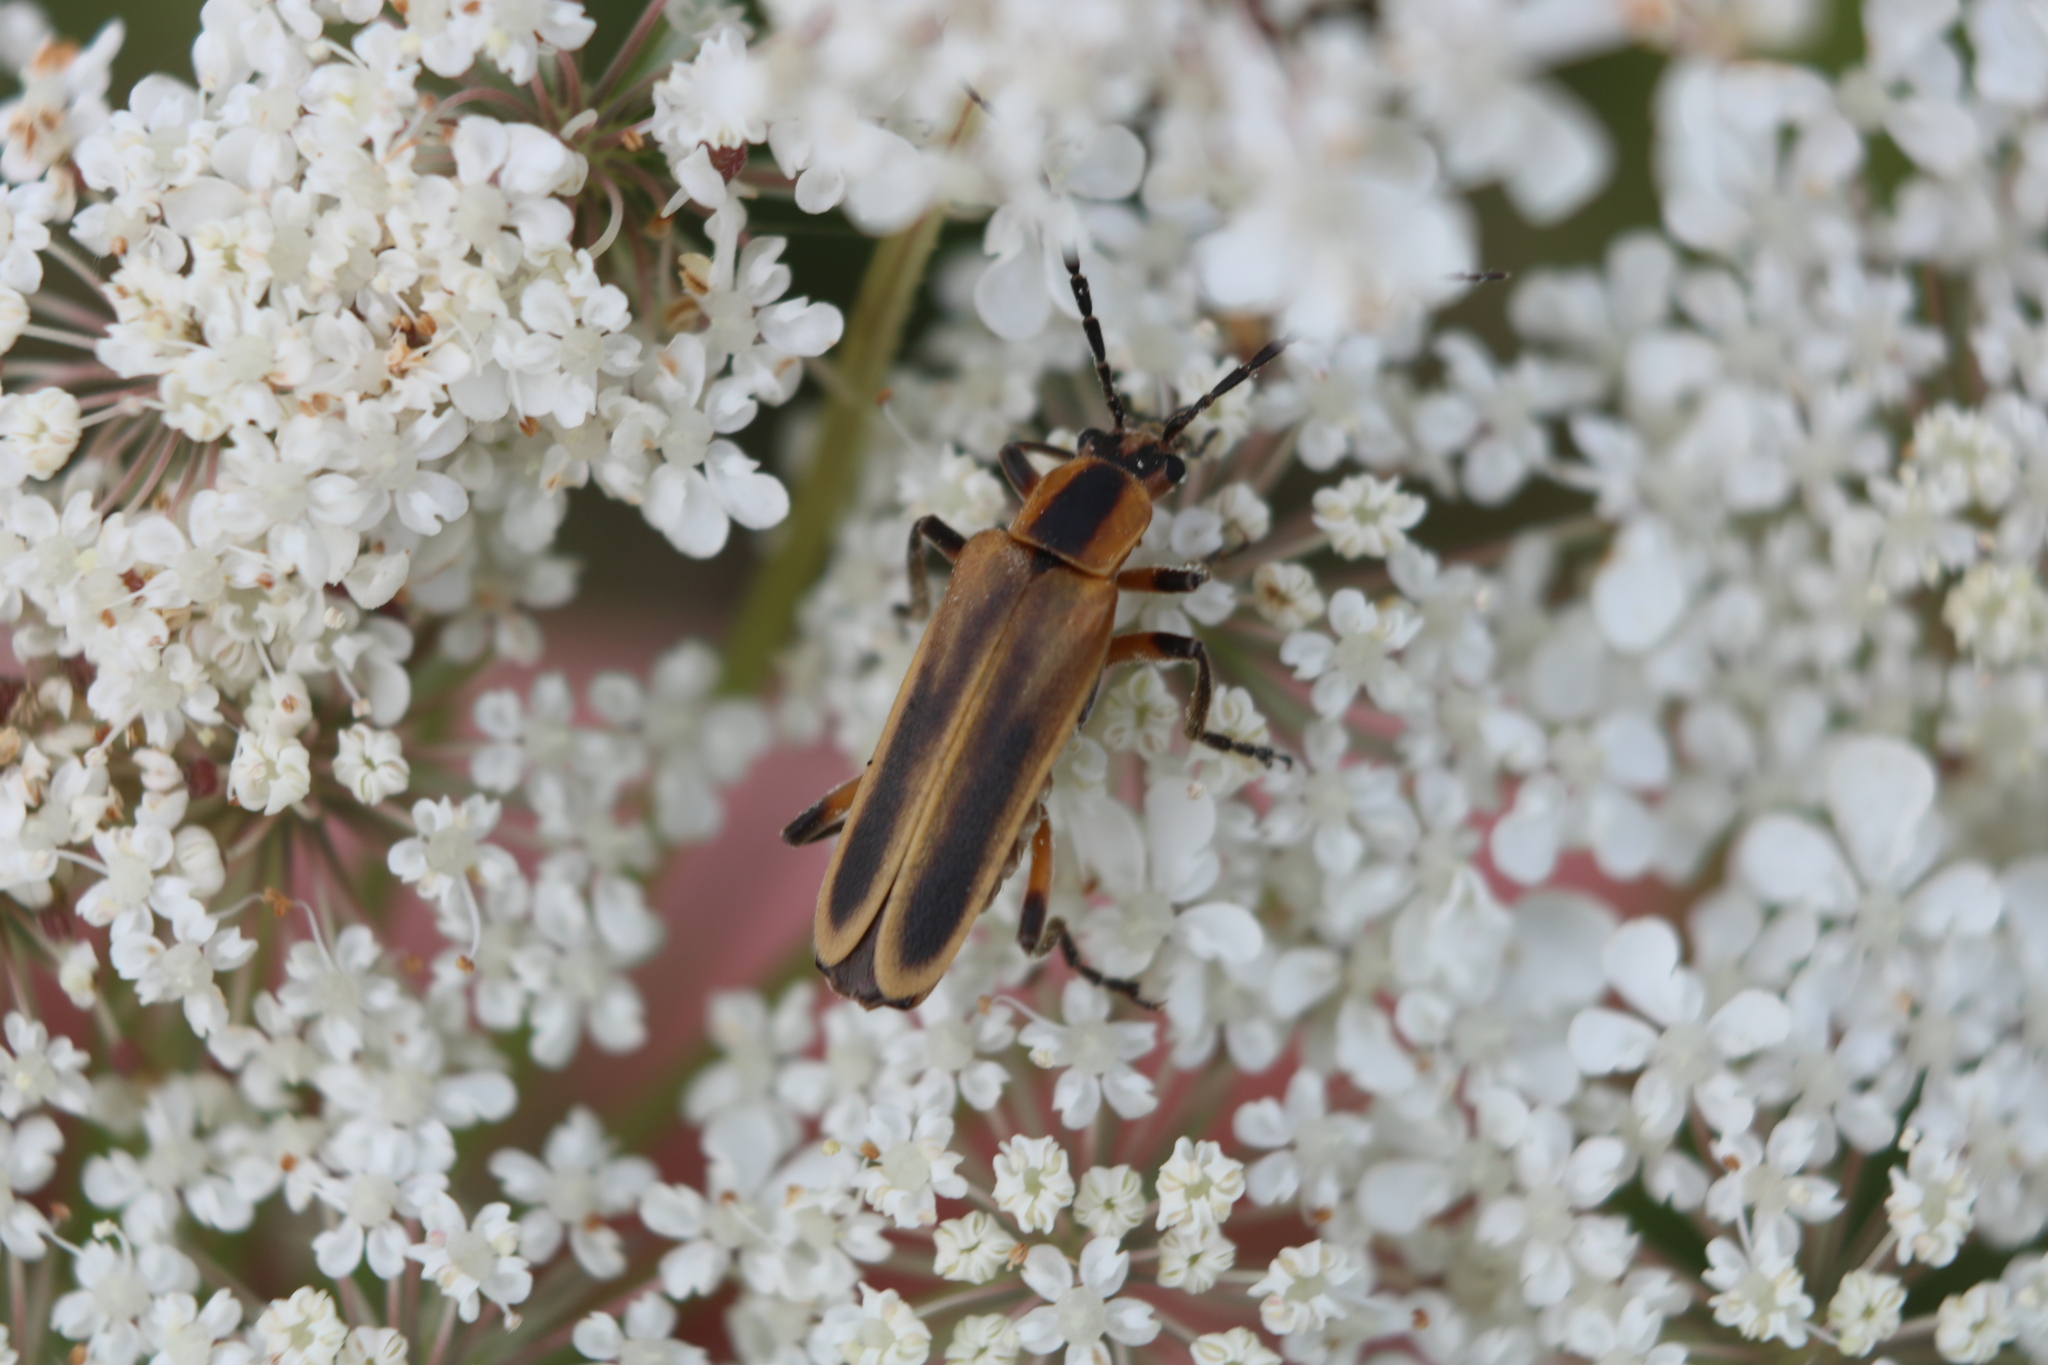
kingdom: Animalia
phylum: Arthropoda
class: Insecta
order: Coleoptera
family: Cantharidae
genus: Chauliognathus
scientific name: Chauliognathus marginatus
